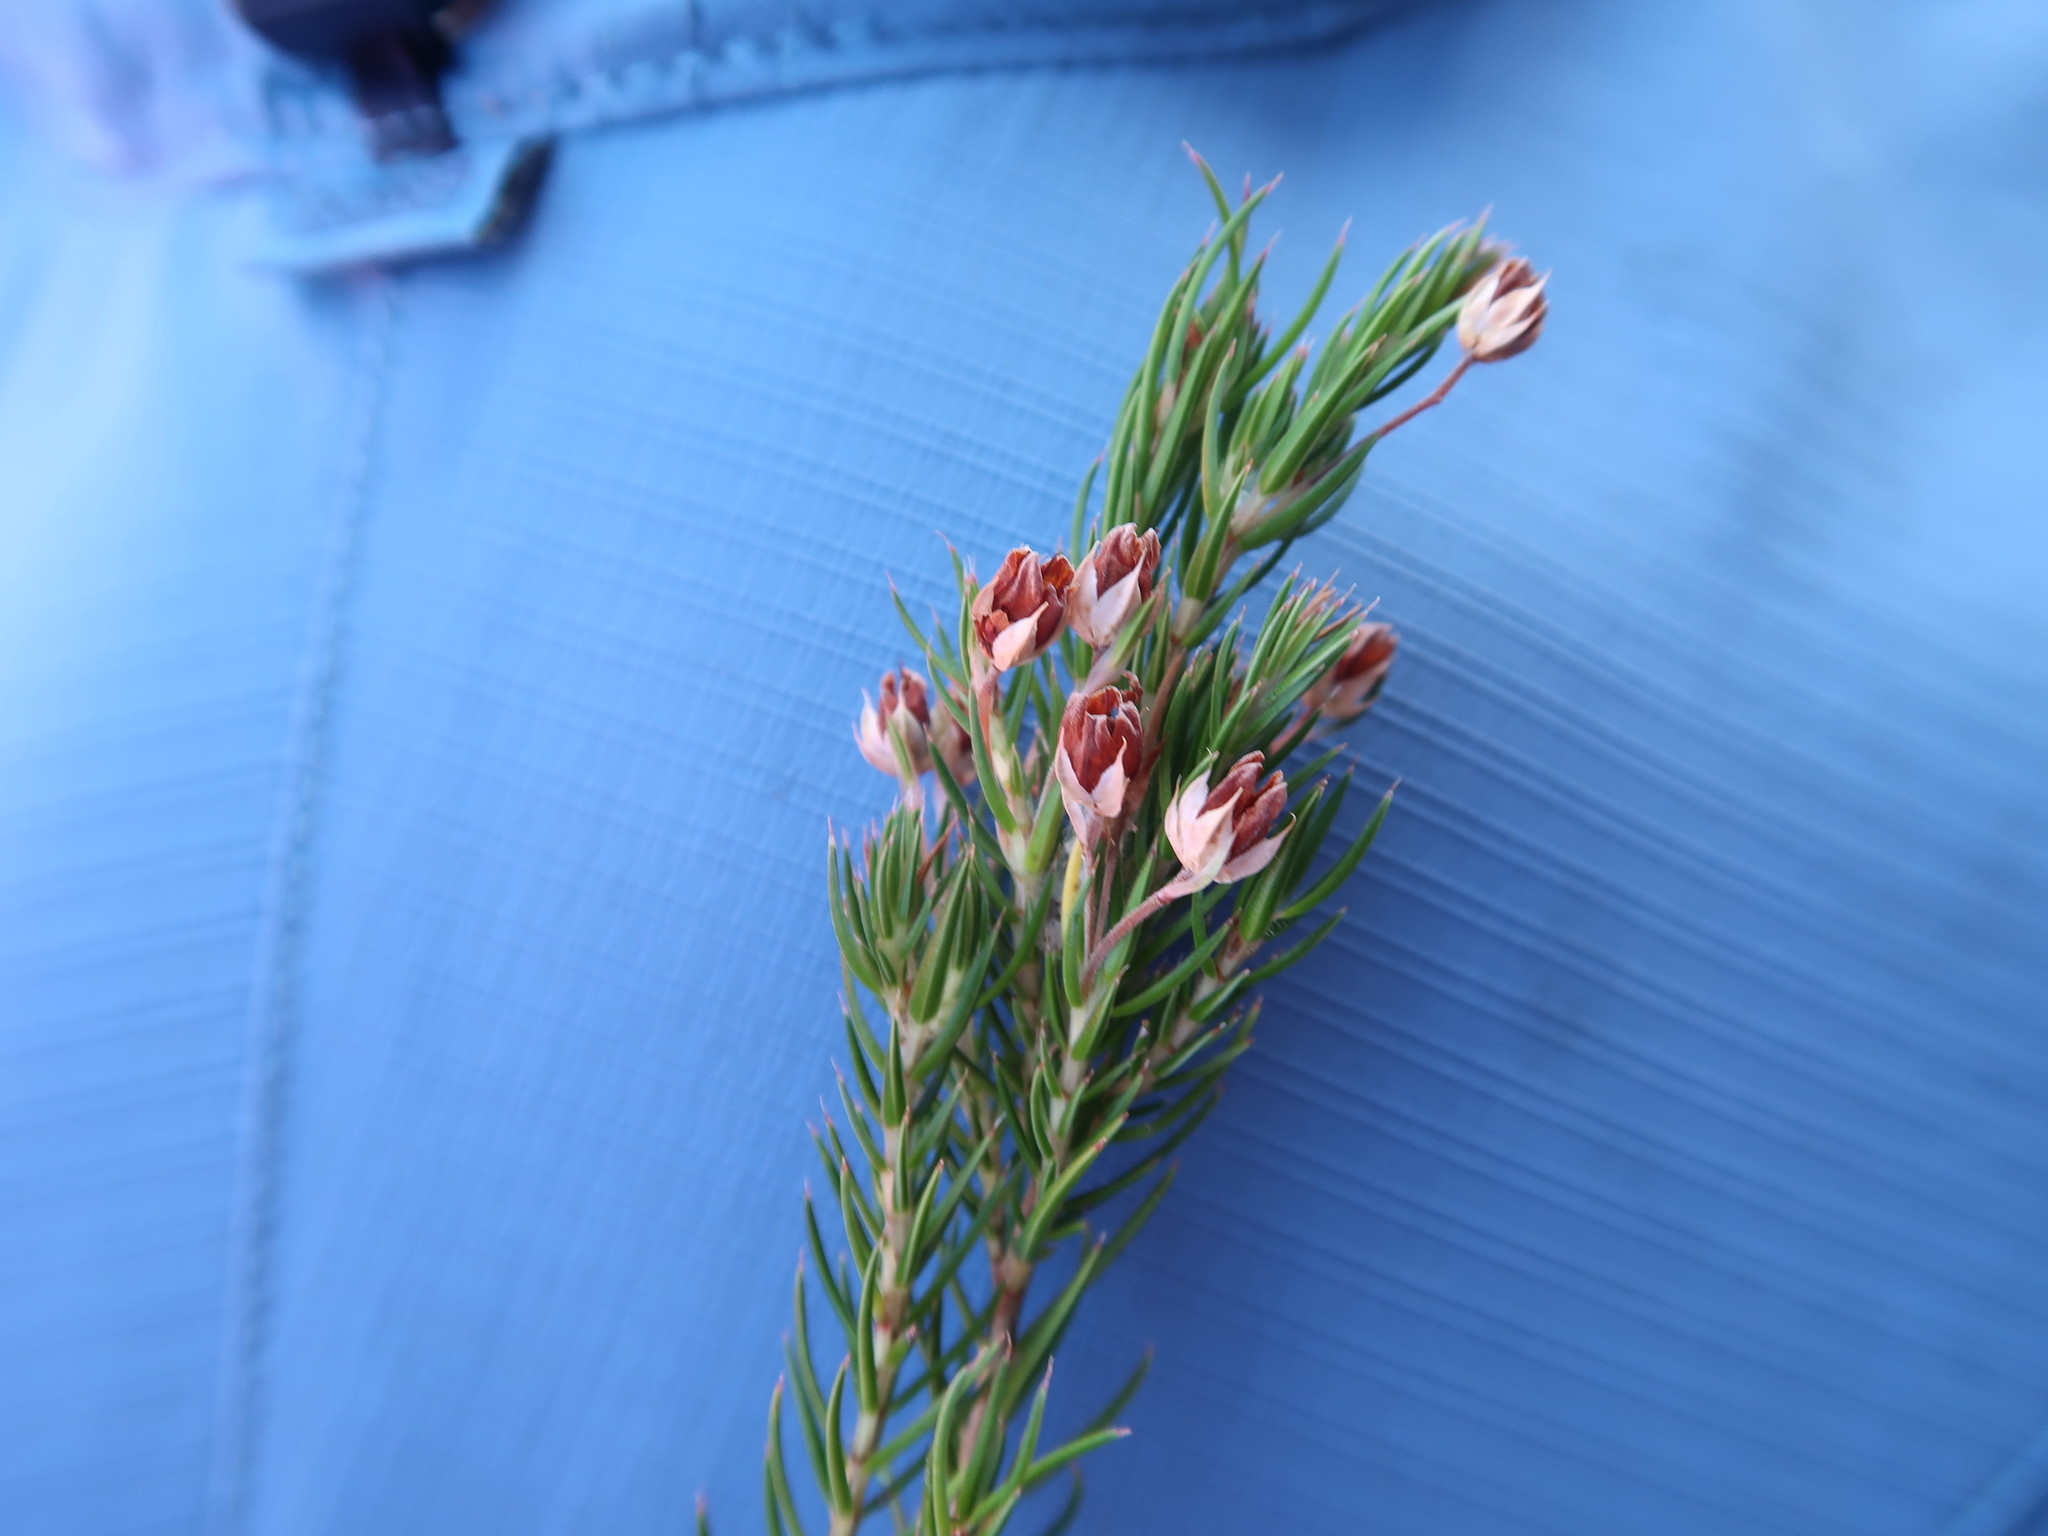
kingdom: Plantae
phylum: Tracheophyta
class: Magnoliopsida
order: Ericales
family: Ericaceae
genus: Erica
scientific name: Erica mucronata
